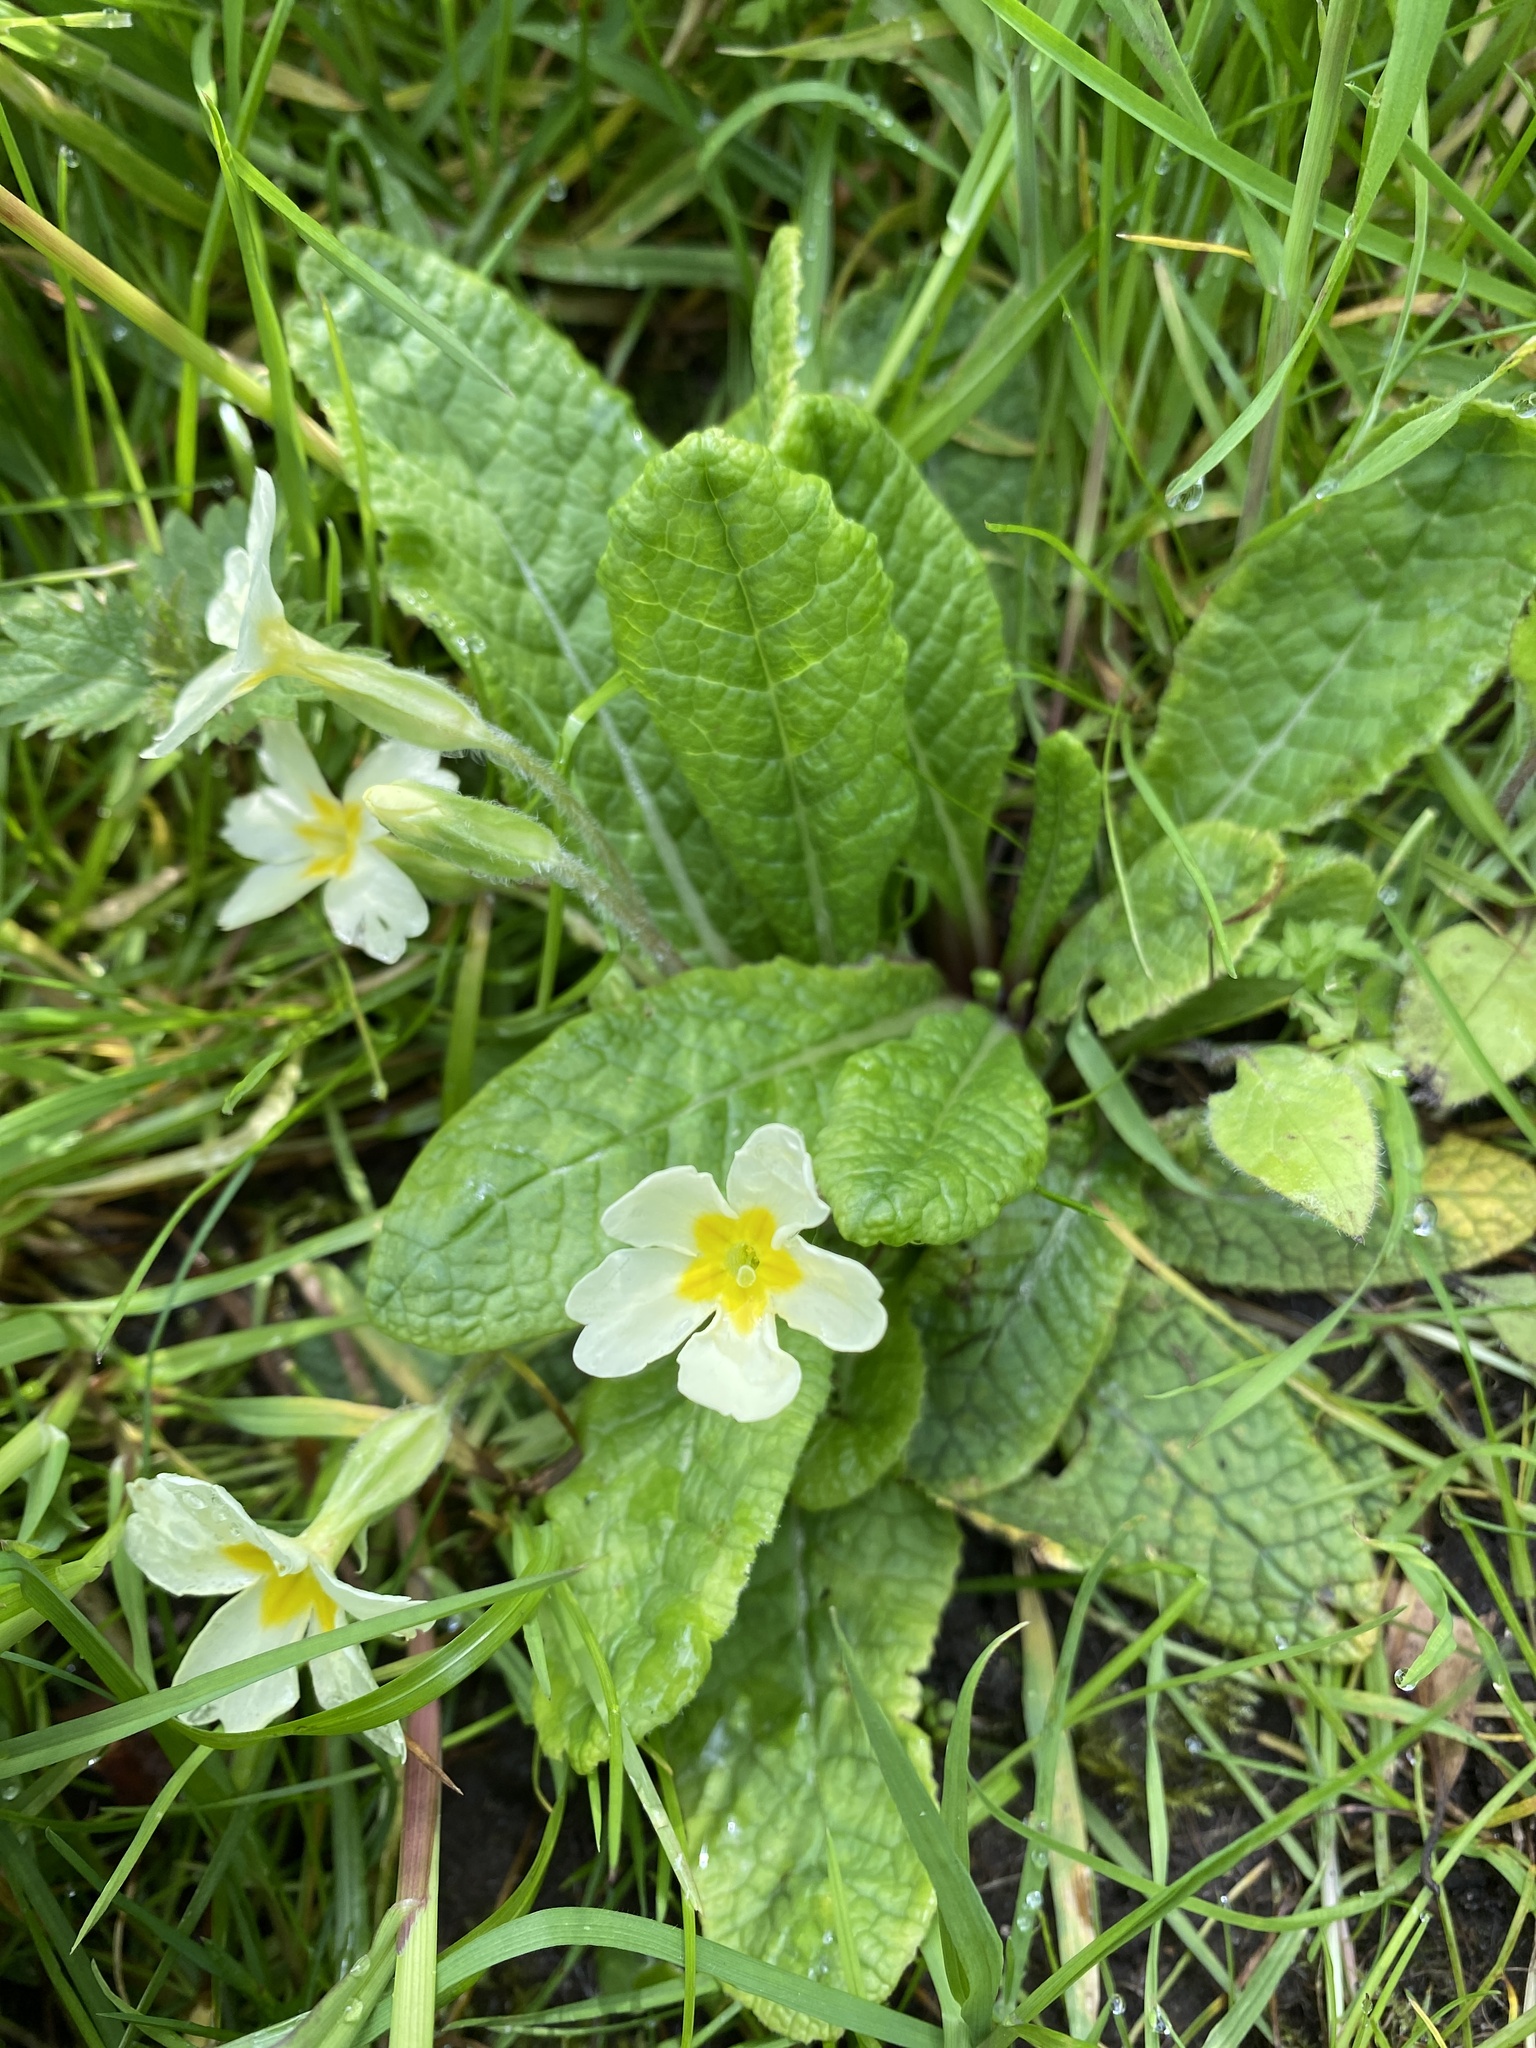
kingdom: Plantae
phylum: Tracheophyta
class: Magnoliopsida
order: Ericales
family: Primulaceae
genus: Primula
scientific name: Primula vulgaris
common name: Primrose
